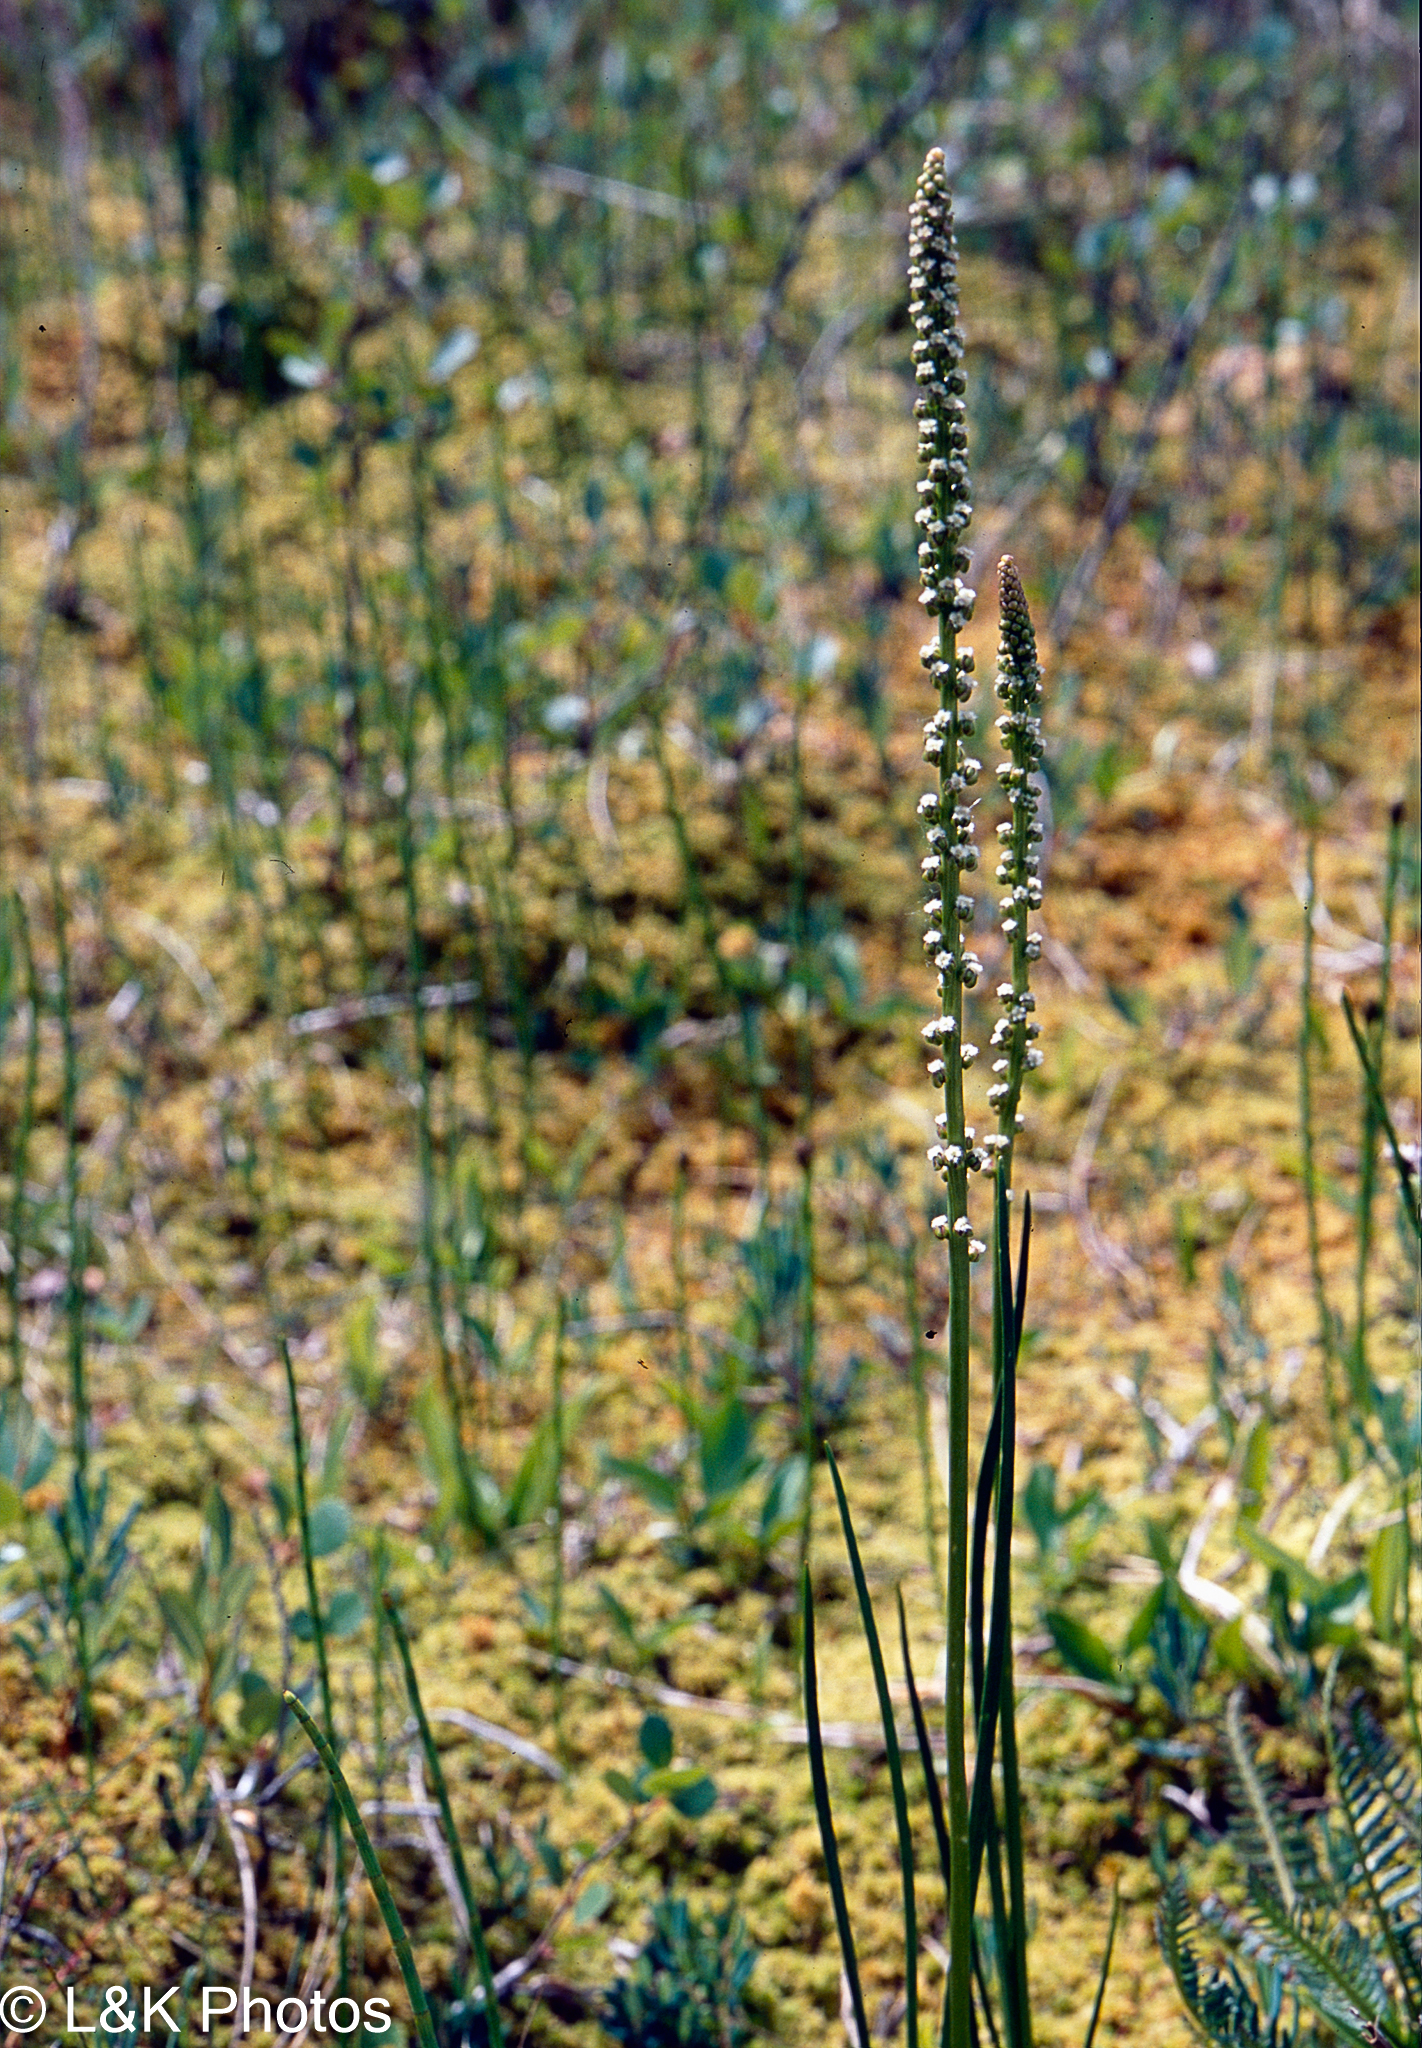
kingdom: Plantae
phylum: Tracheophyta
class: Liliopsida
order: Alismatales
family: Juncaginaceae
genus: Triglochin
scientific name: Triglochin maritima
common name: Sea arrowgrass
